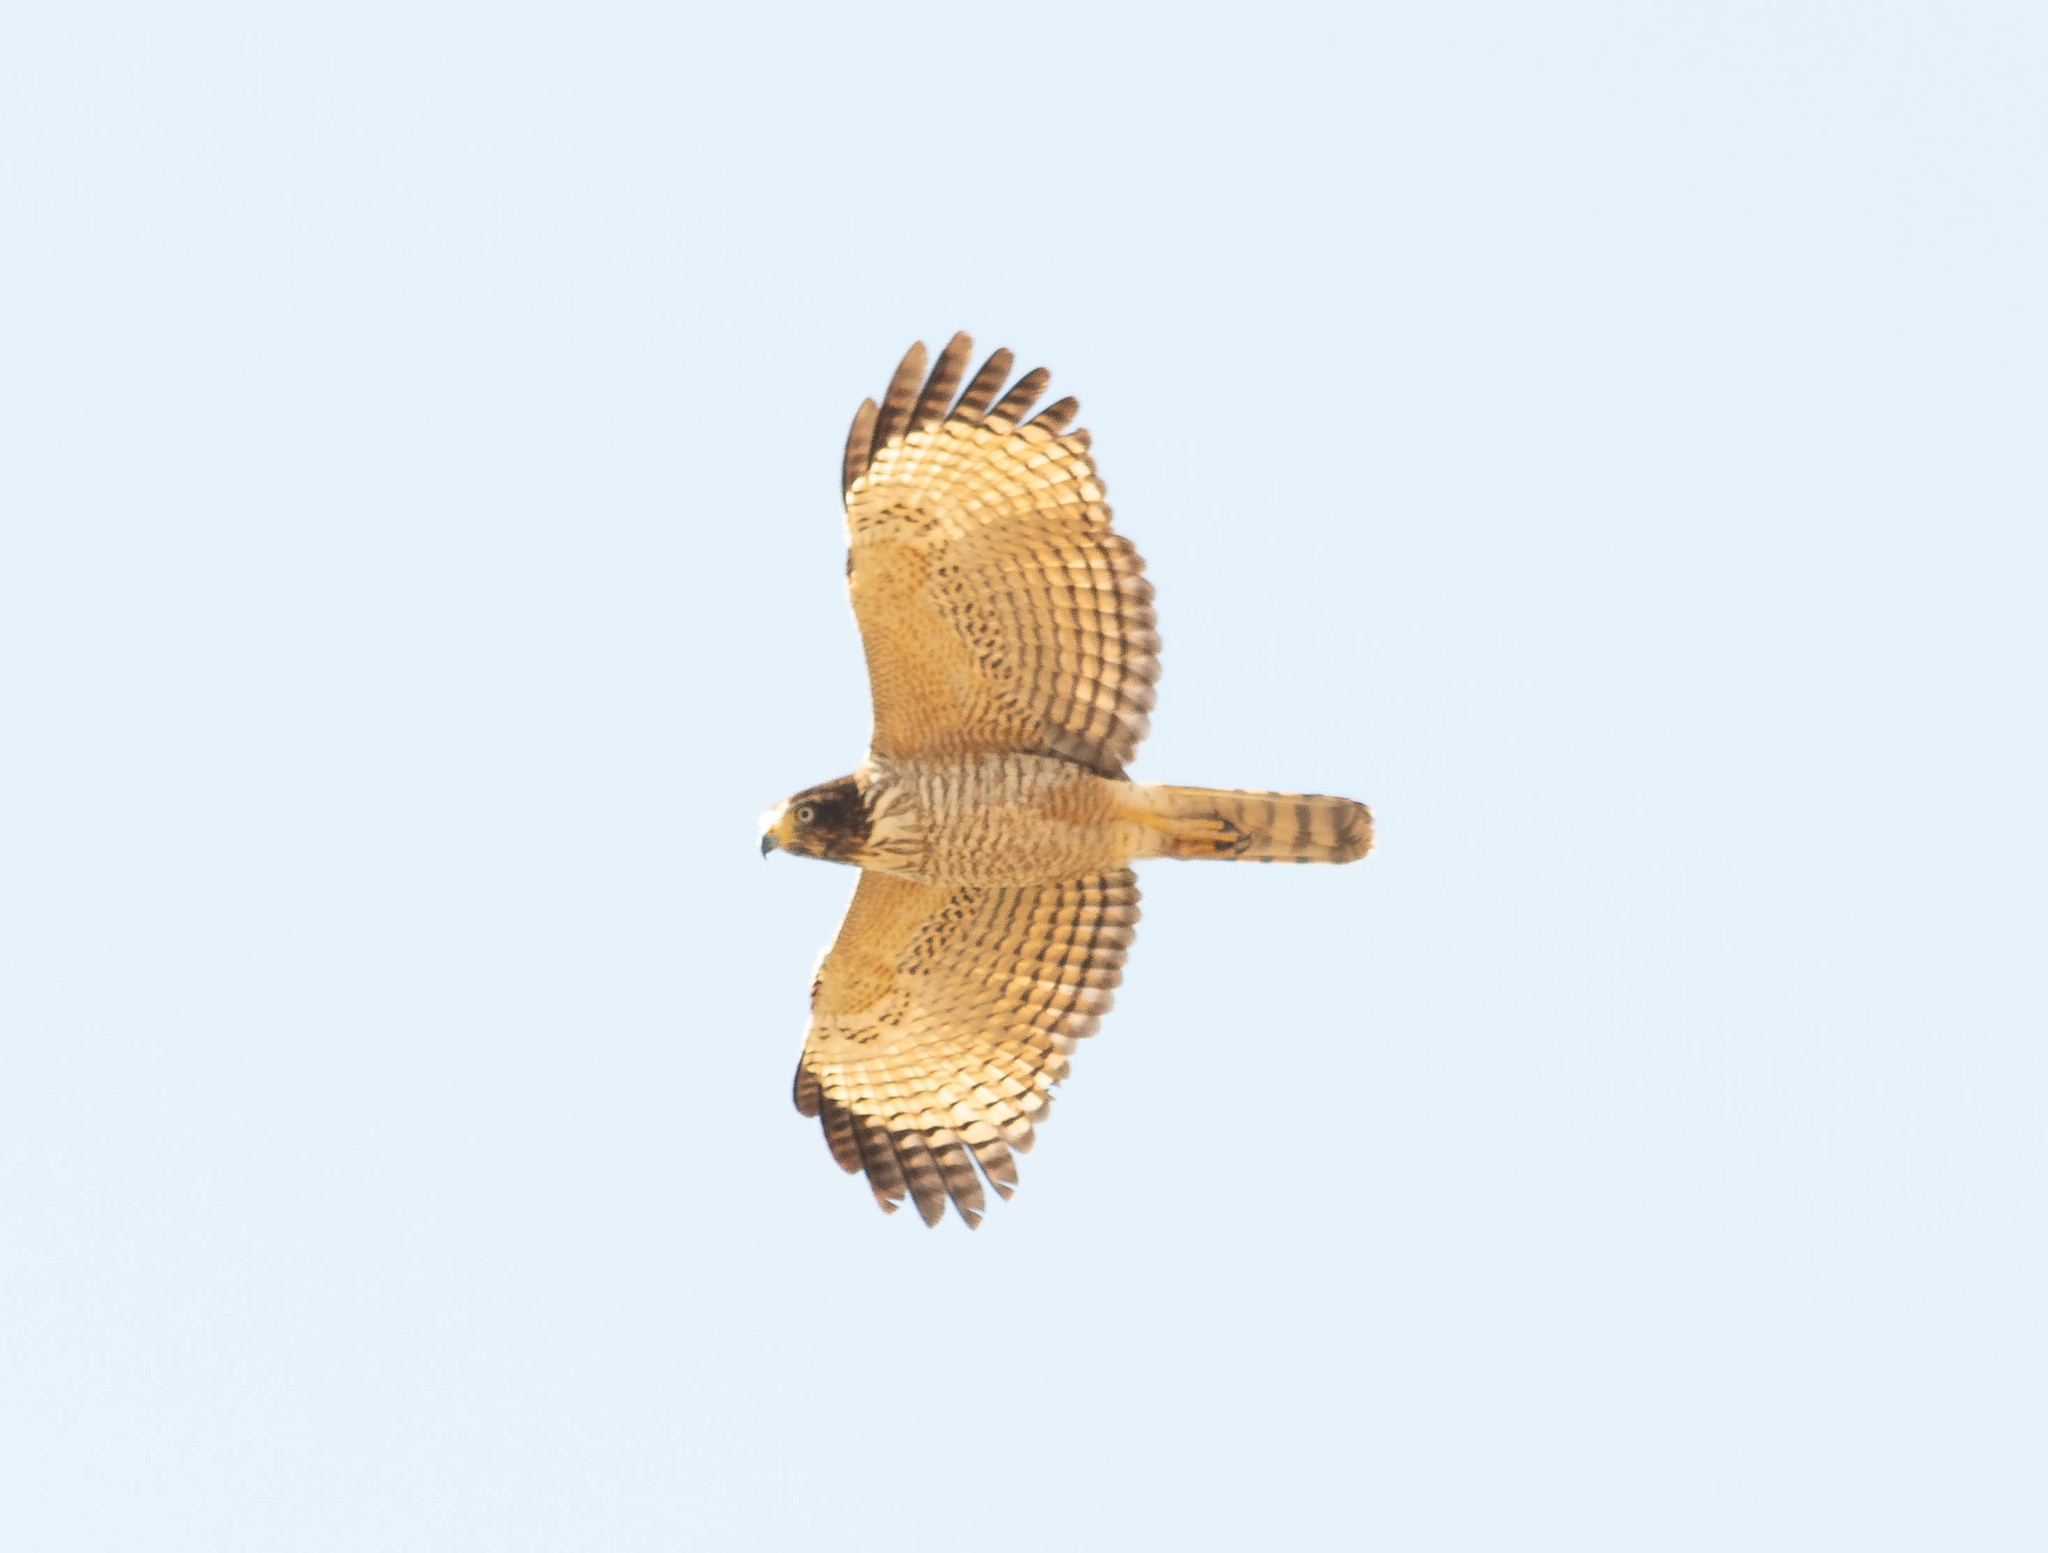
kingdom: Animalia
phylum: Chordata
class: Aves
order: Accipitriformes
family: Accipitridae
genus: Rupornis
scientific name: Rupornis magnirostris
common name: Roadside hawk
